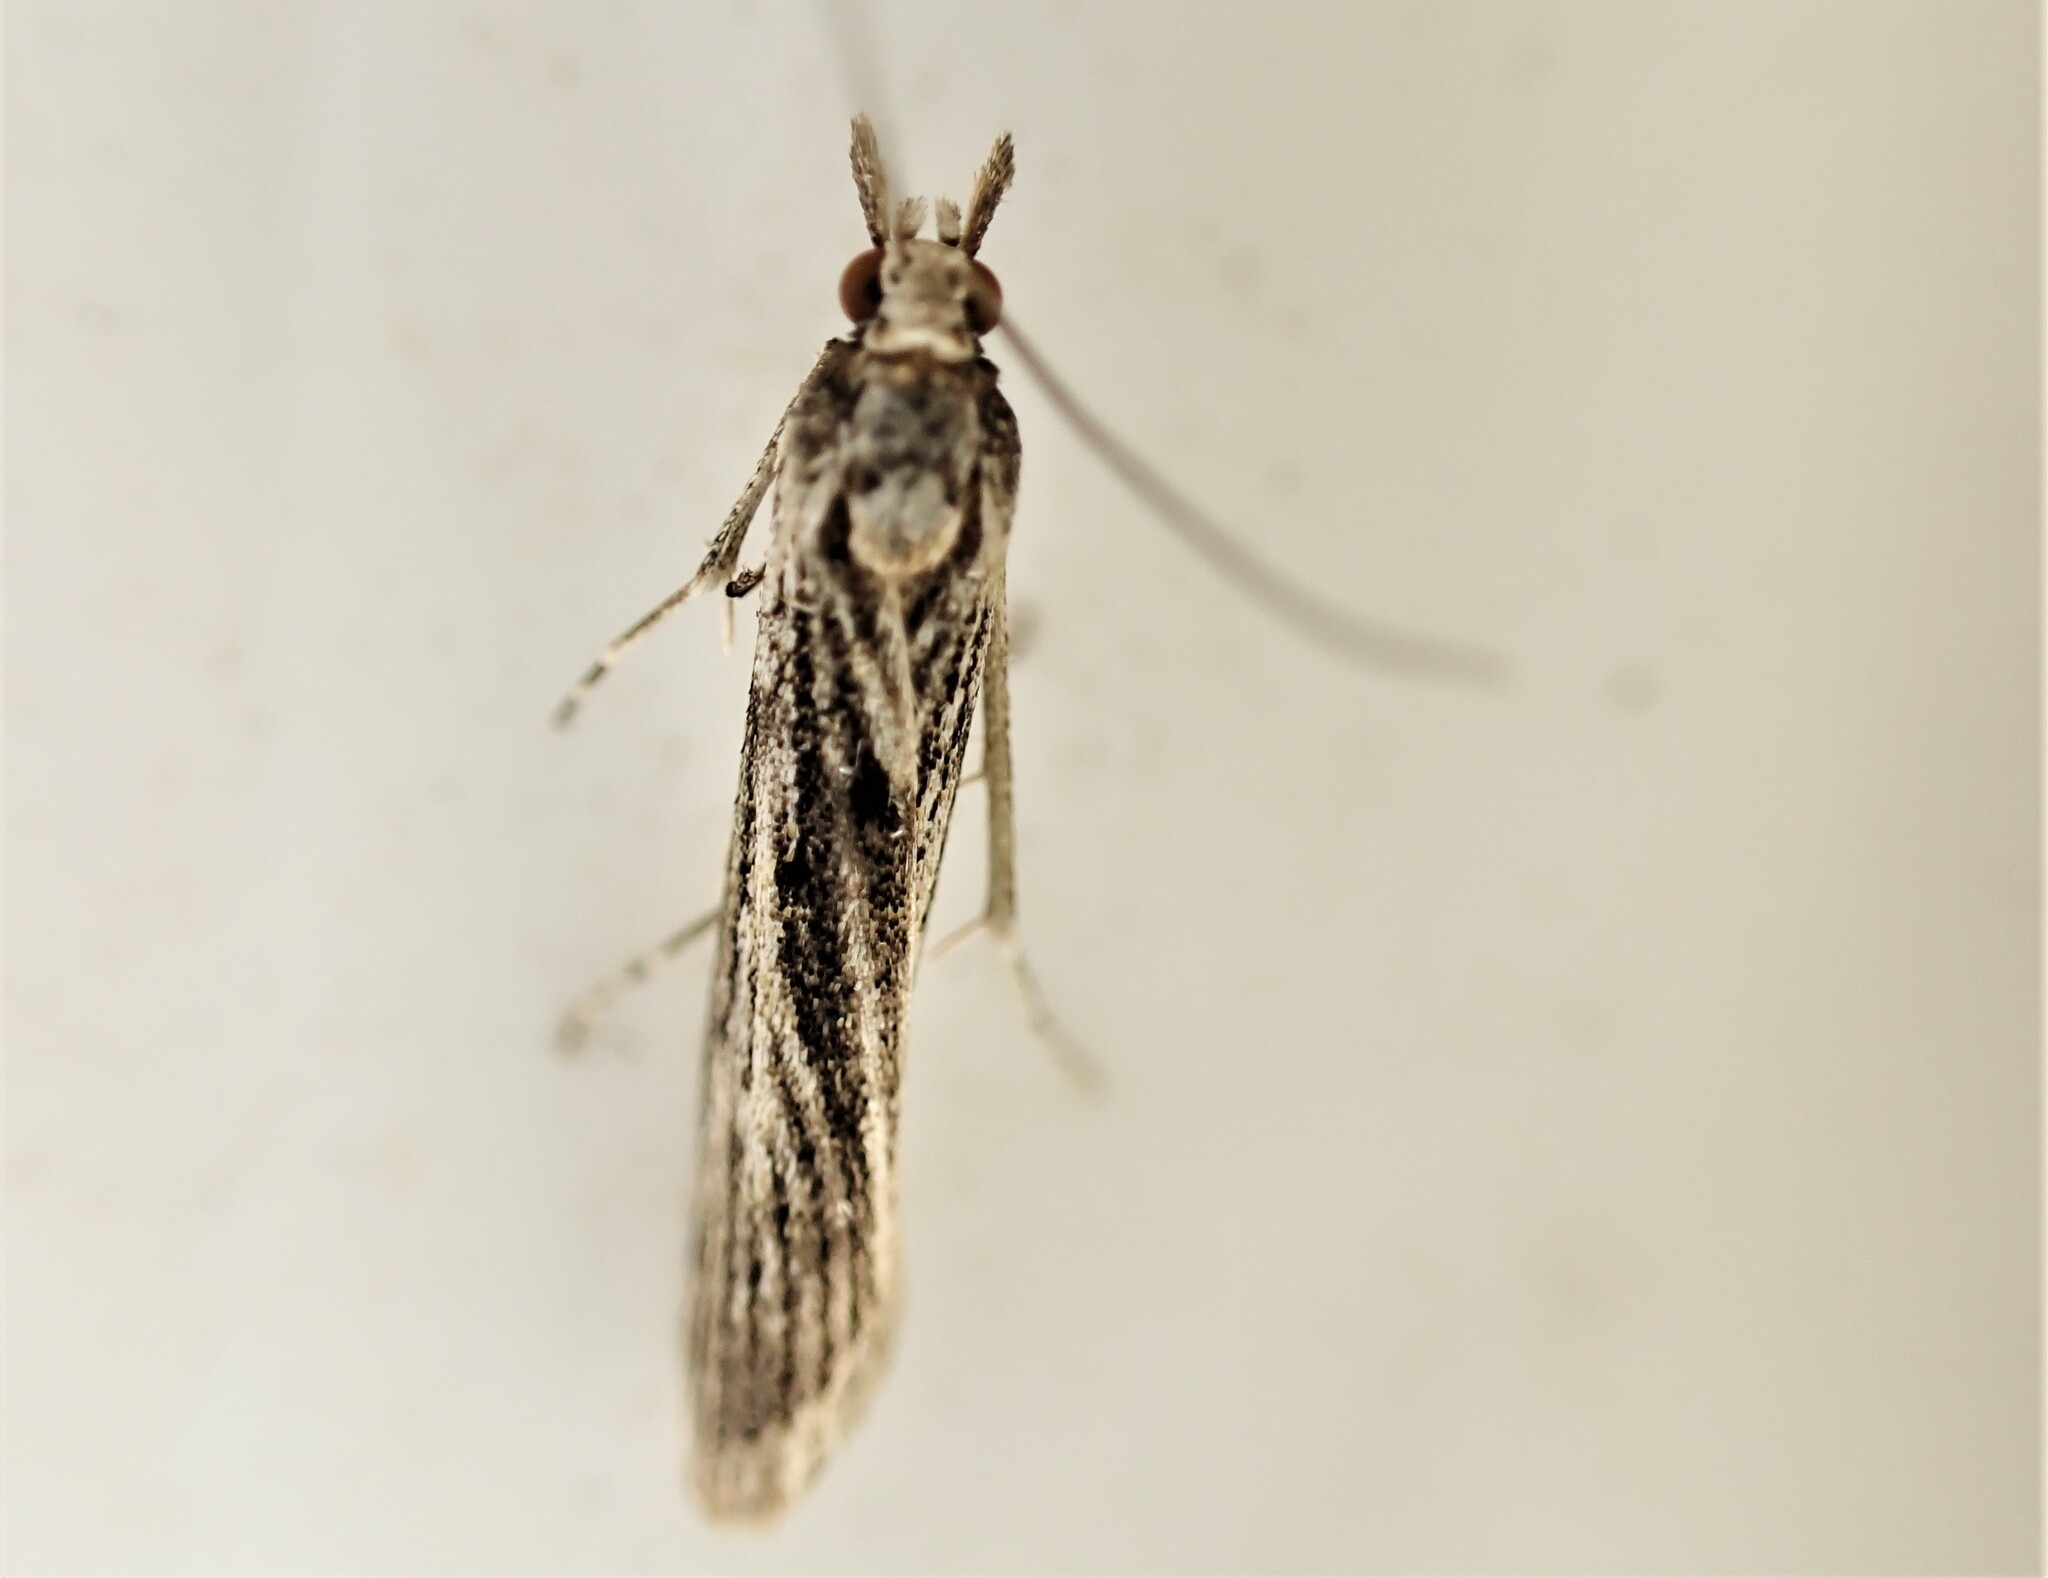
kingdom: Animalia
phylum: Arthropoda
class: Insecta
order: Lepidoptera
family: Crambidae
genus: Eudonia
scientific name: Eudonia atmogramma
